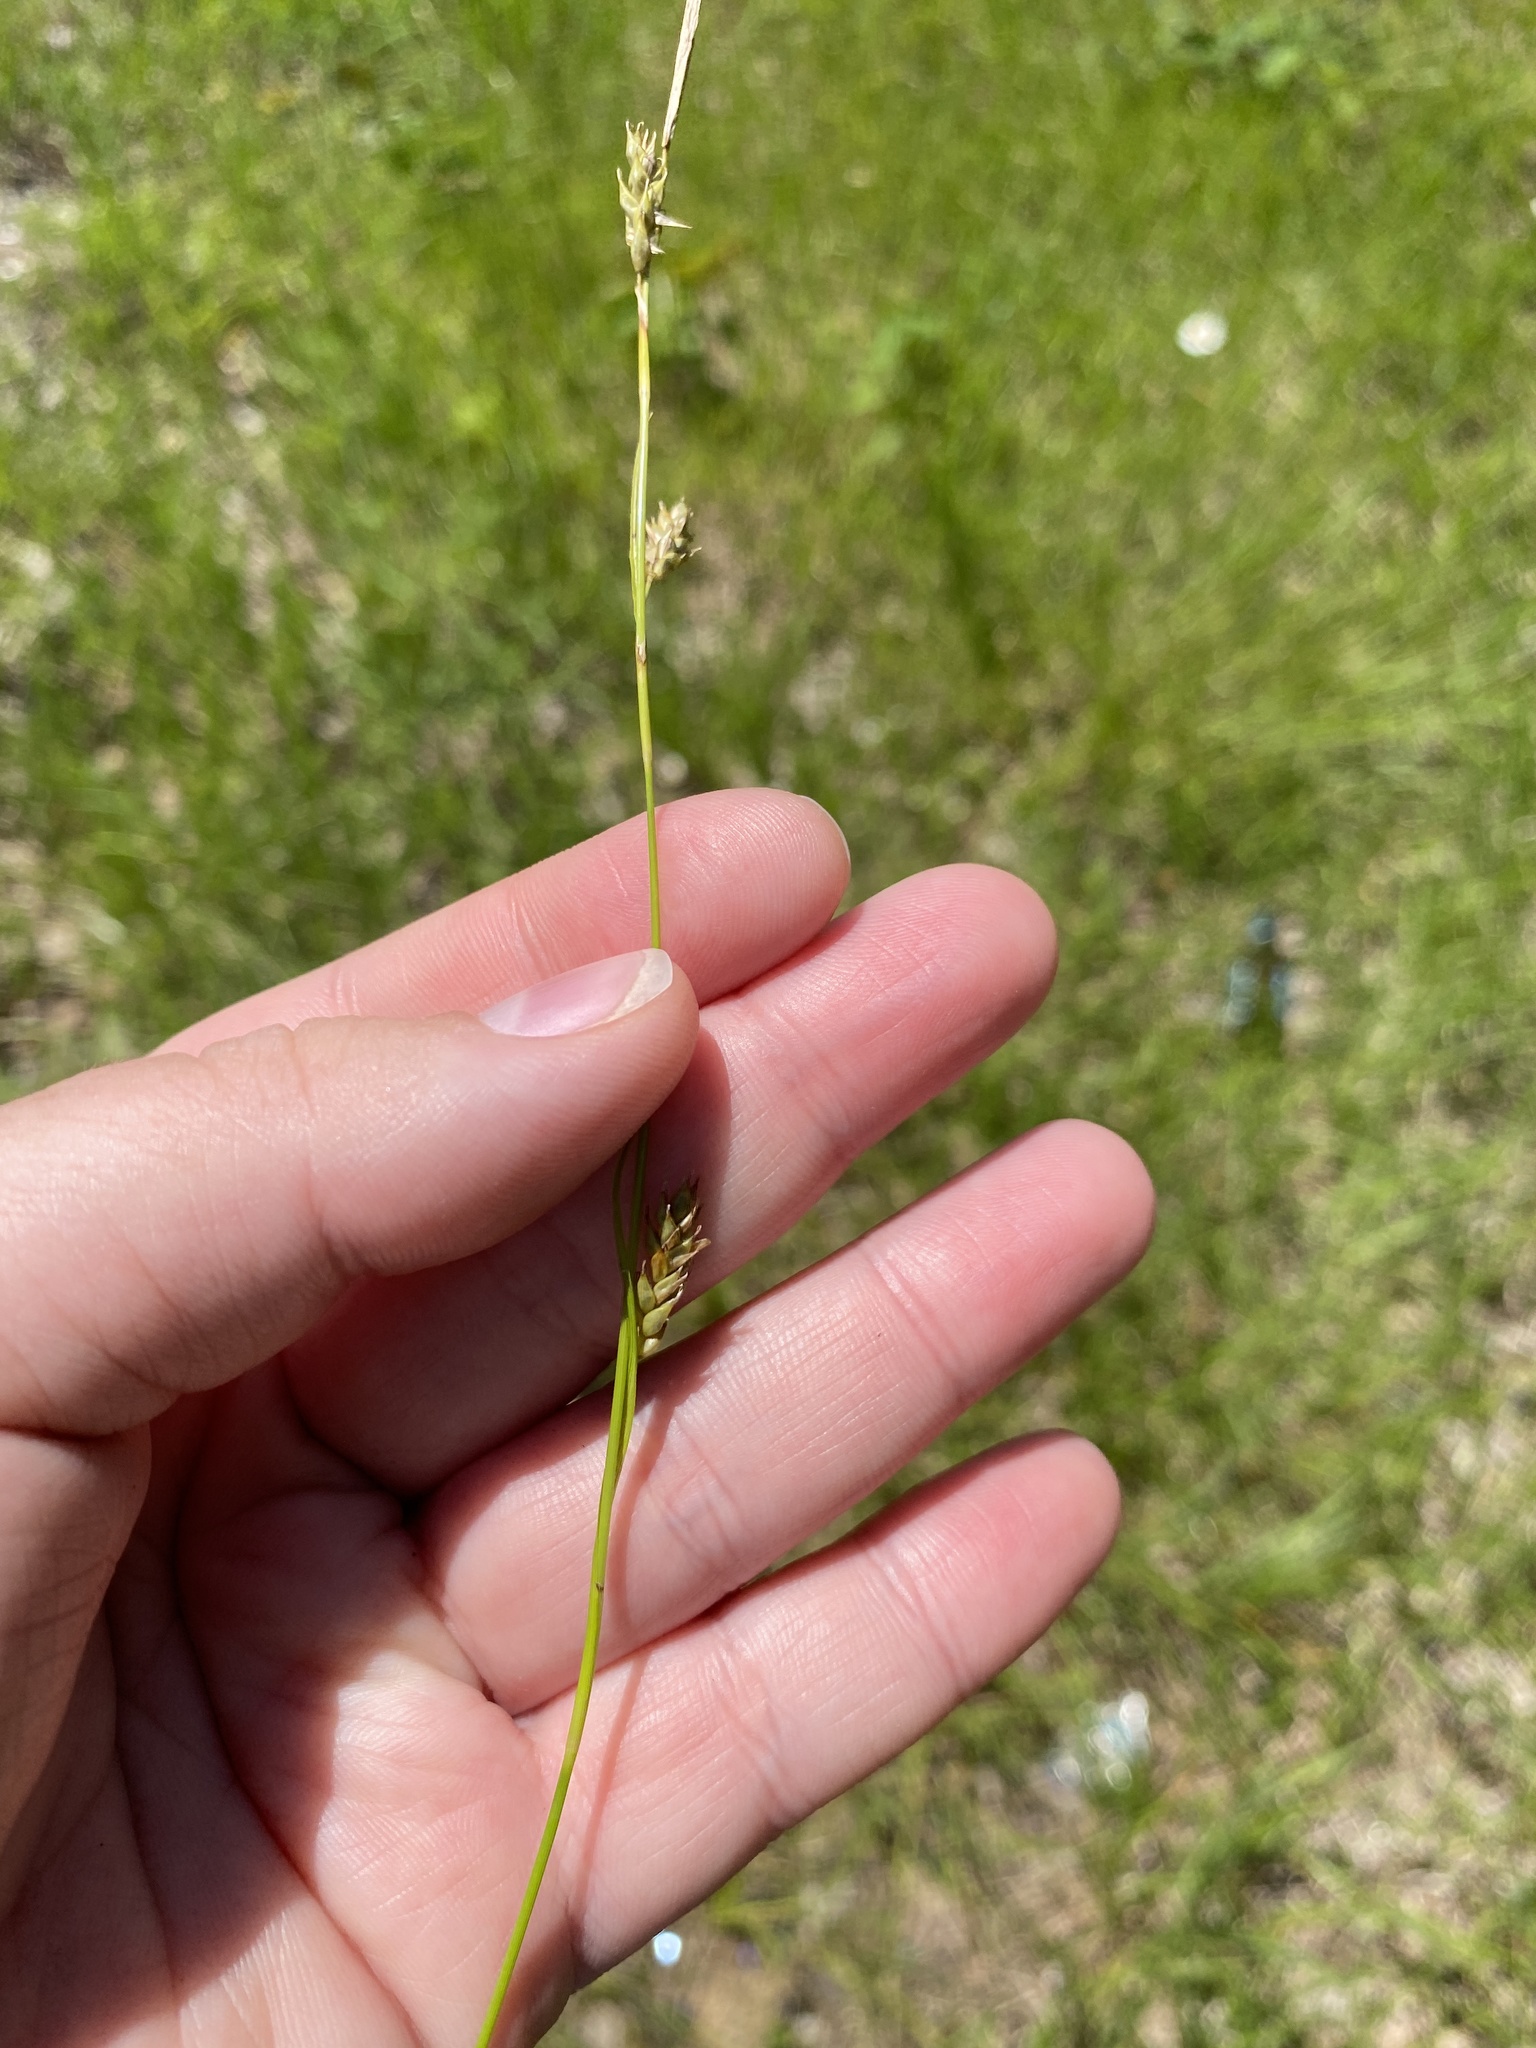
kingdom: Plantae
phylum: Tracheophyta
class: Liliopsida
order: Poales
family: Cyperaceae
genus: Carex
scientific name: Carex cherokeensis
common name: Cherokee sedge
